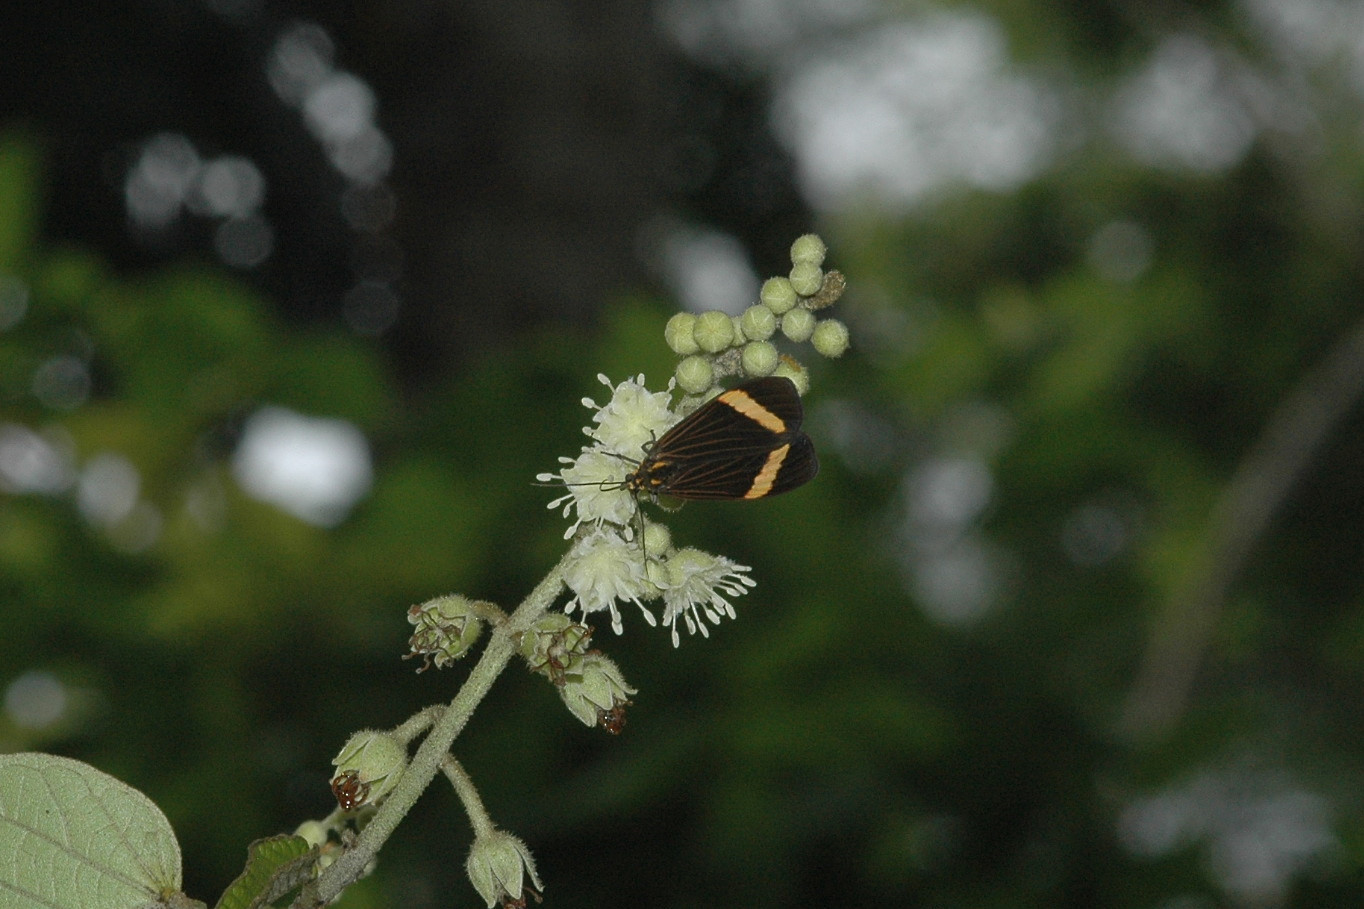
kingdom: Animalia
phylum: Arthropoda
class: Insecta
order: Lepidoptera
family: Erebidae
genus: Epidesma
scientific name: Epidesma ursula
